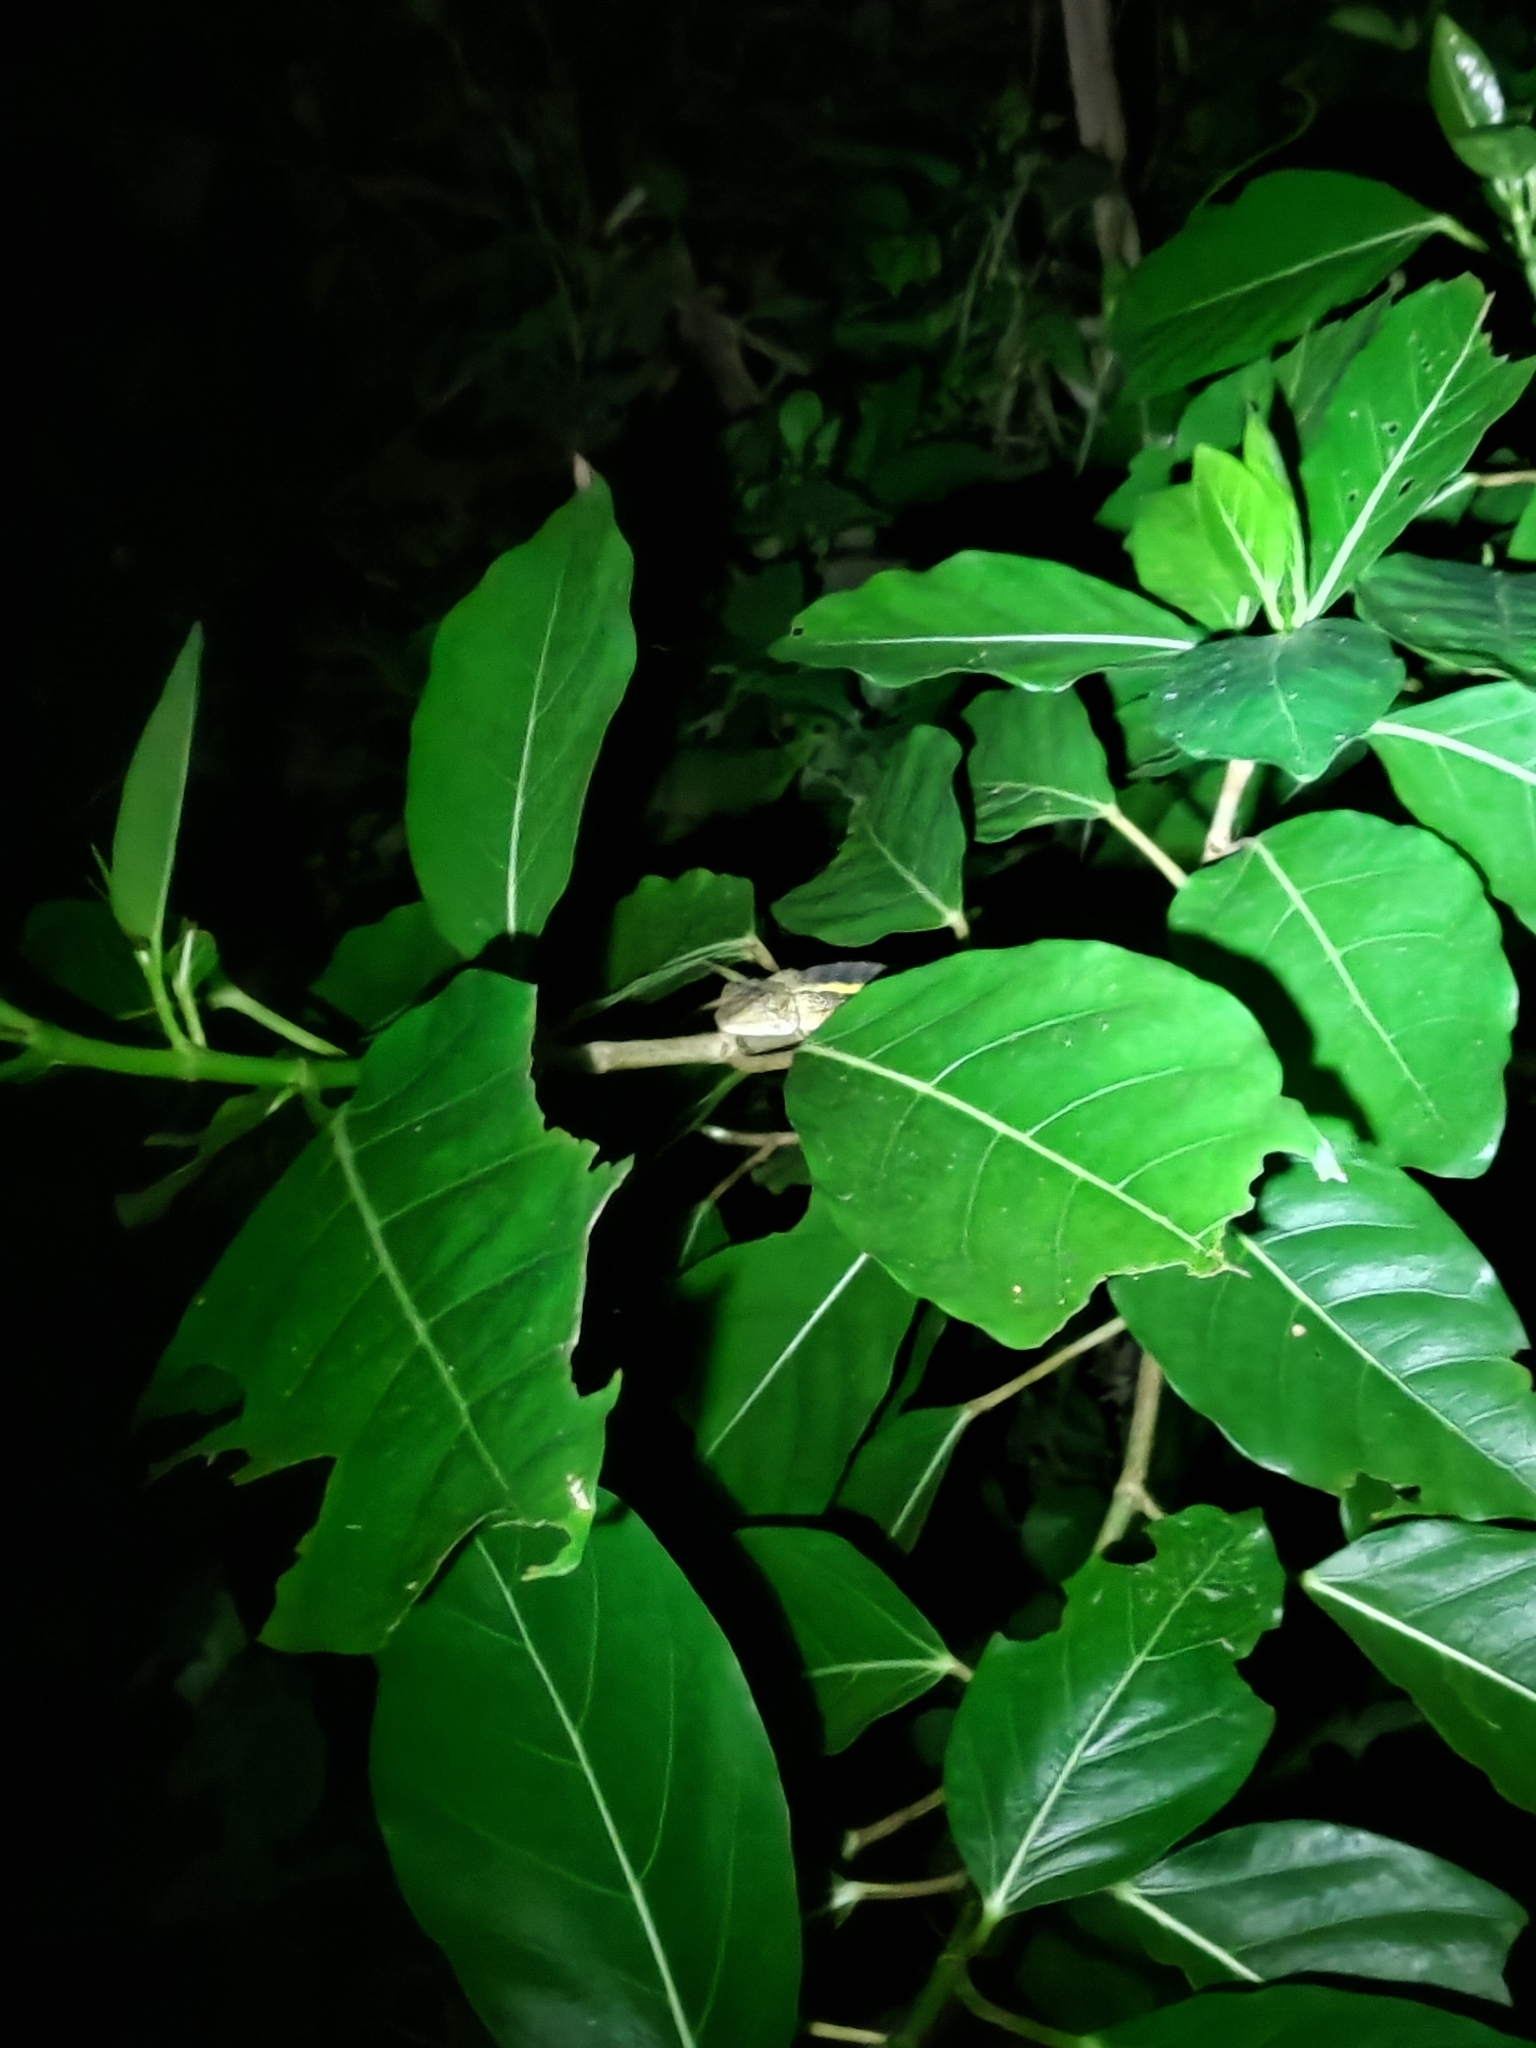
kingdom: Animalia
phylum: Chordata
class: Squamata
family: Agamidae
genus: Diploderma
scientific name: Diploderma swinhonis
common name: Taiwan japalure
